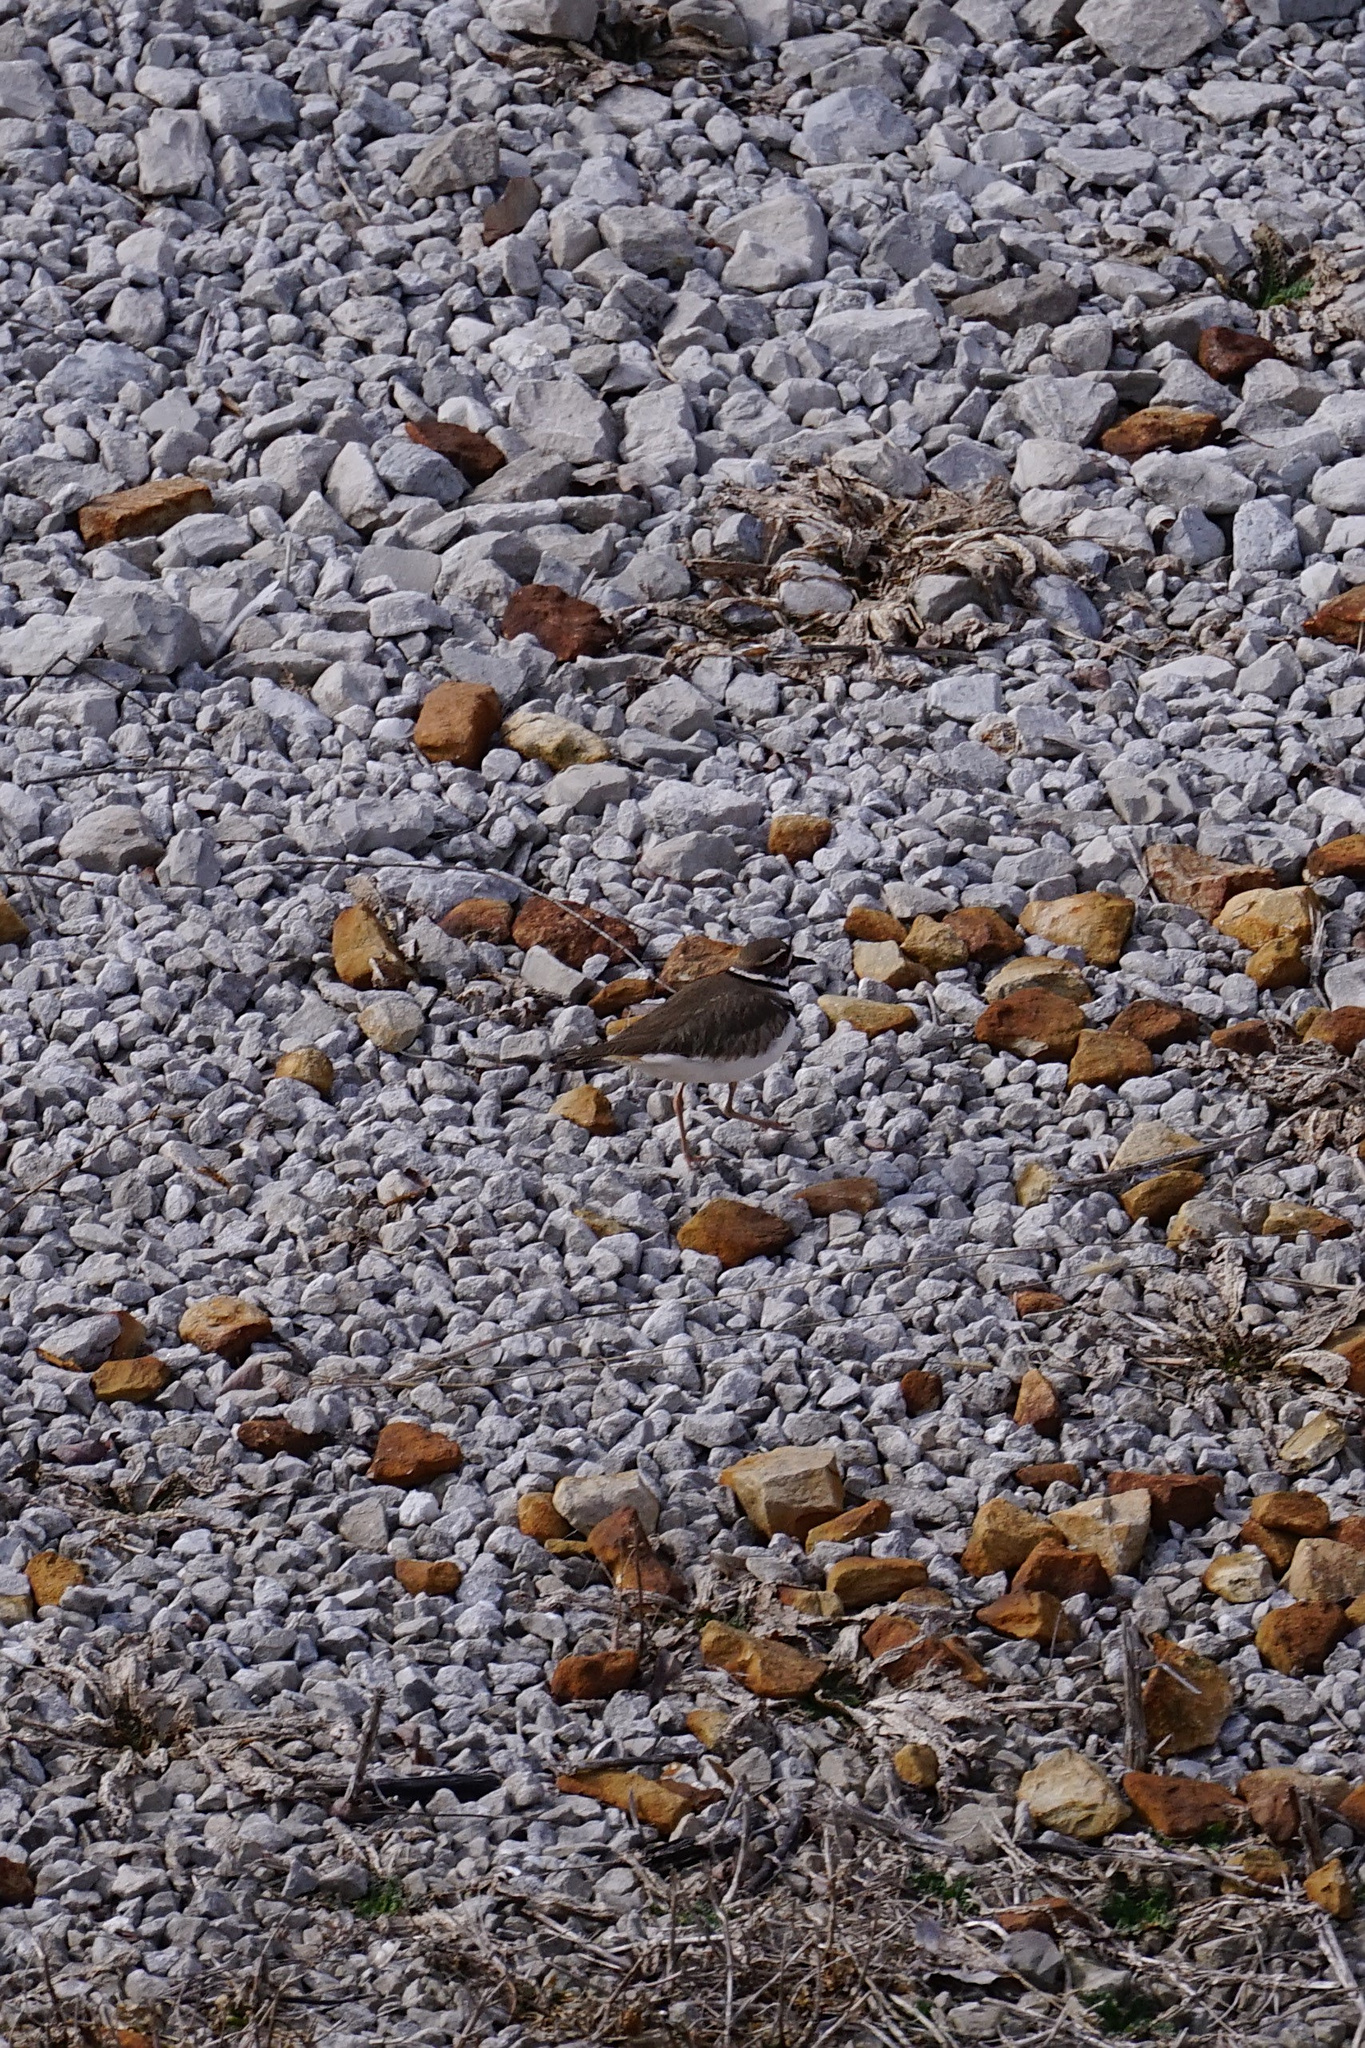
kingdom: Animalia
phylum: Chordata
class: Aves
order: Charadriiformes
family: Charadriidae
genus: Charadrius
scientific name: Charadrius vociferus
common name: Killdeer
